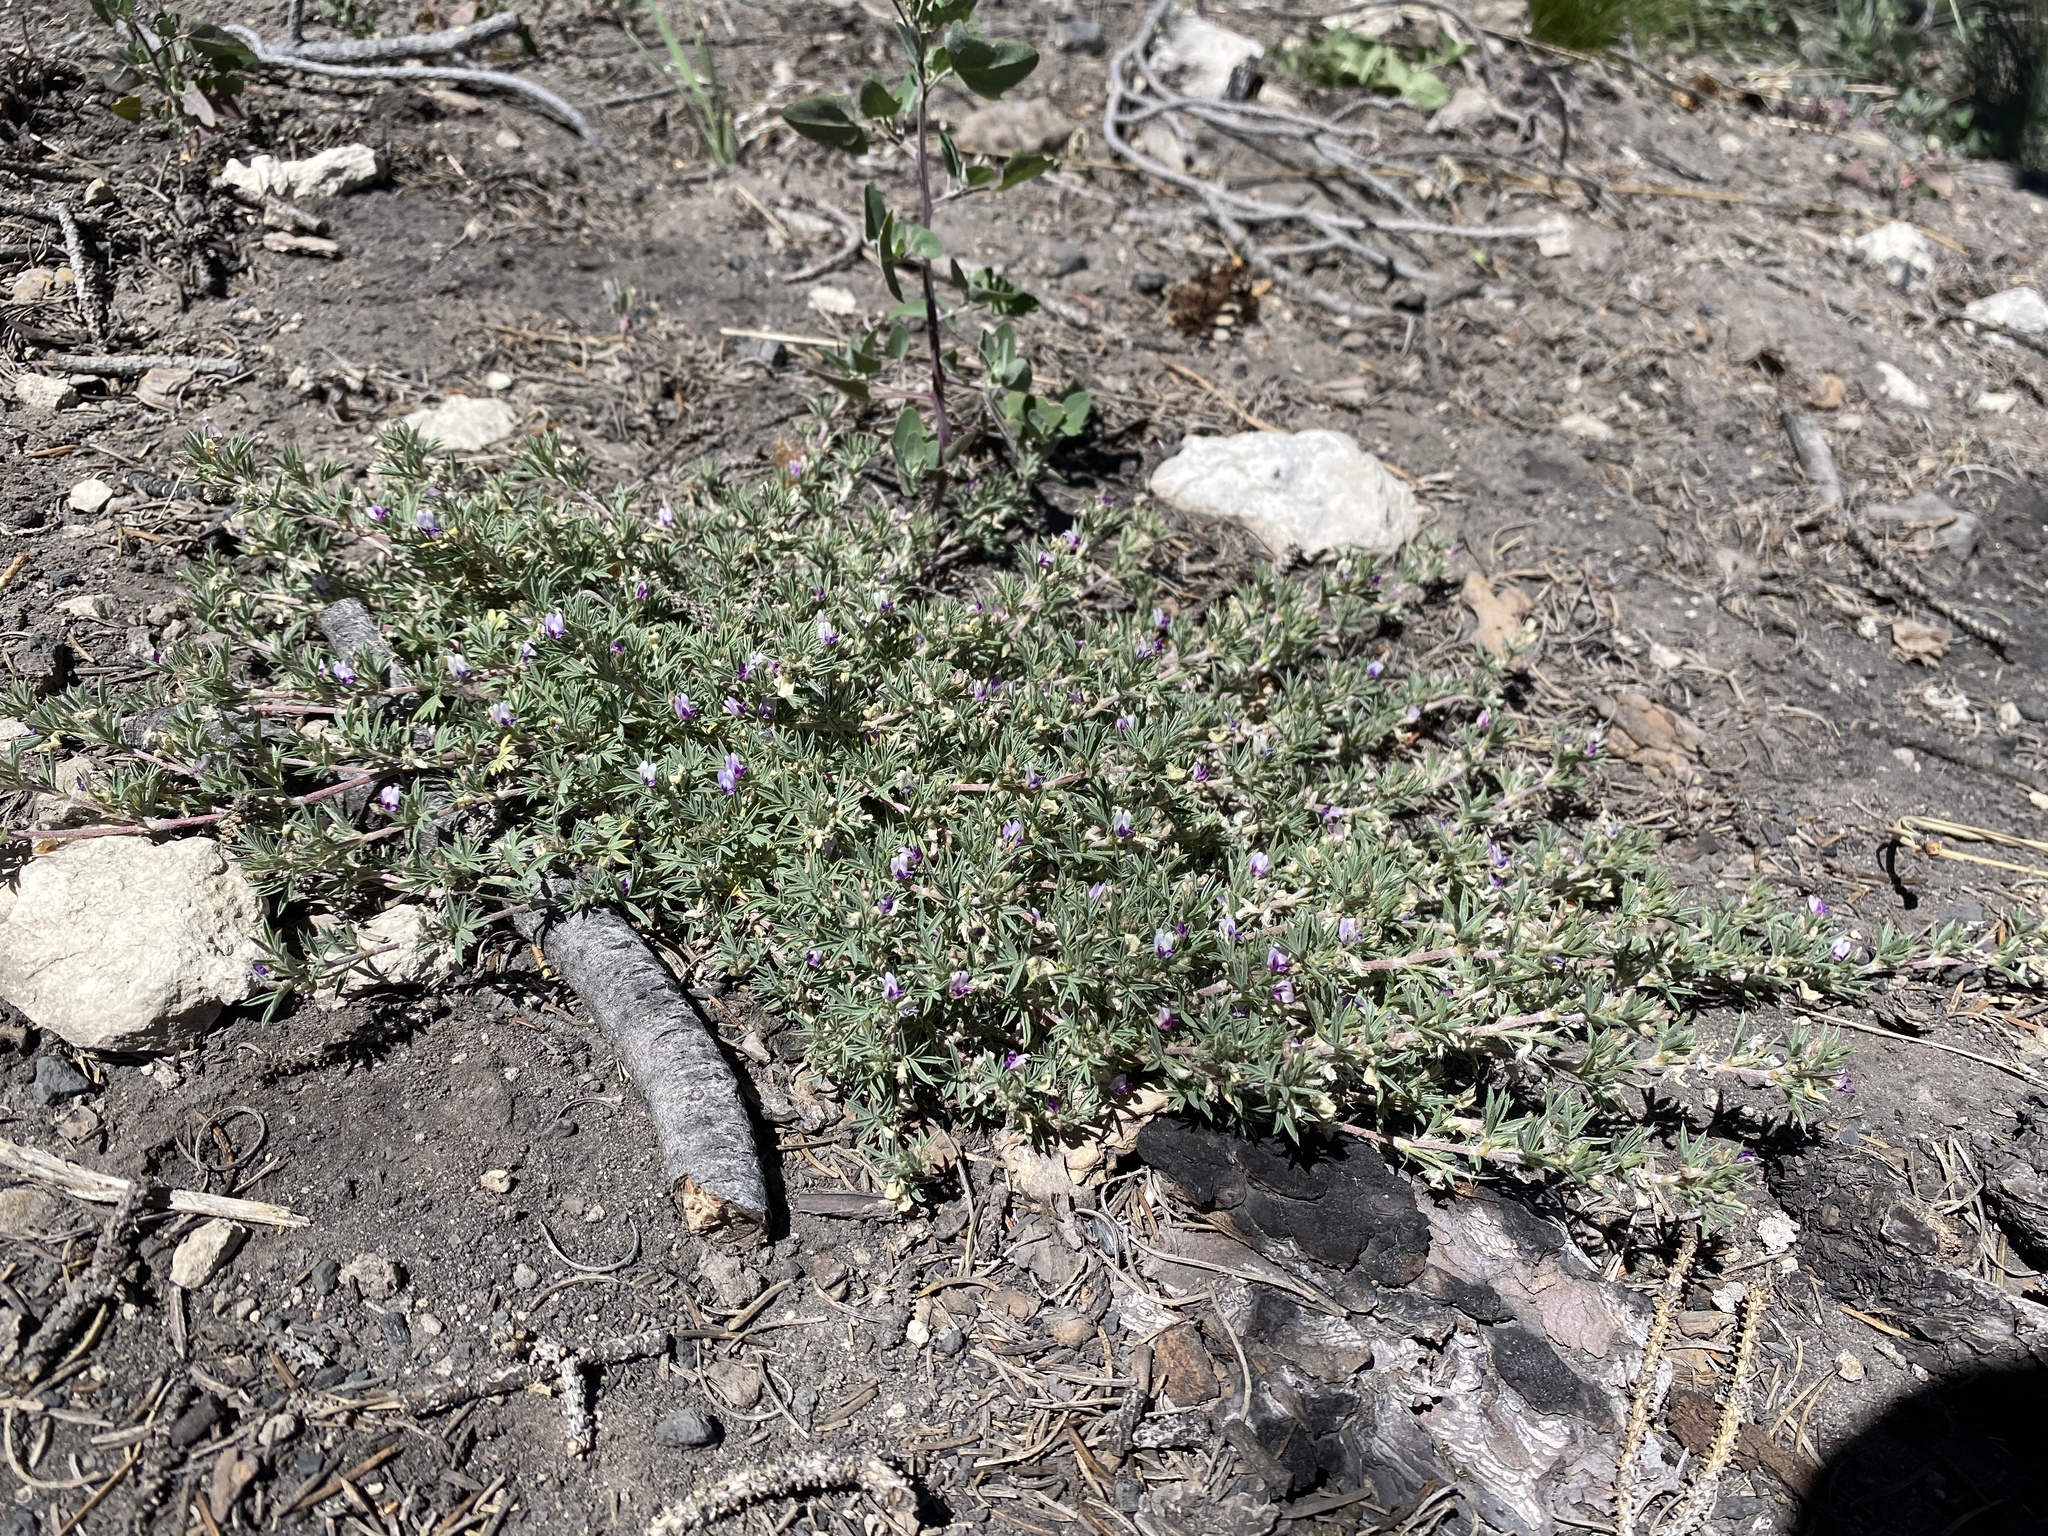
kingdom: Plantae
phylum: Tracheophyta
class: Magnoliopsida
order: Fabales
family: Fabaceae
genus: Astragalus
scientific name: Astragalus kentrophyta
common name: Prickly milk-vetch
